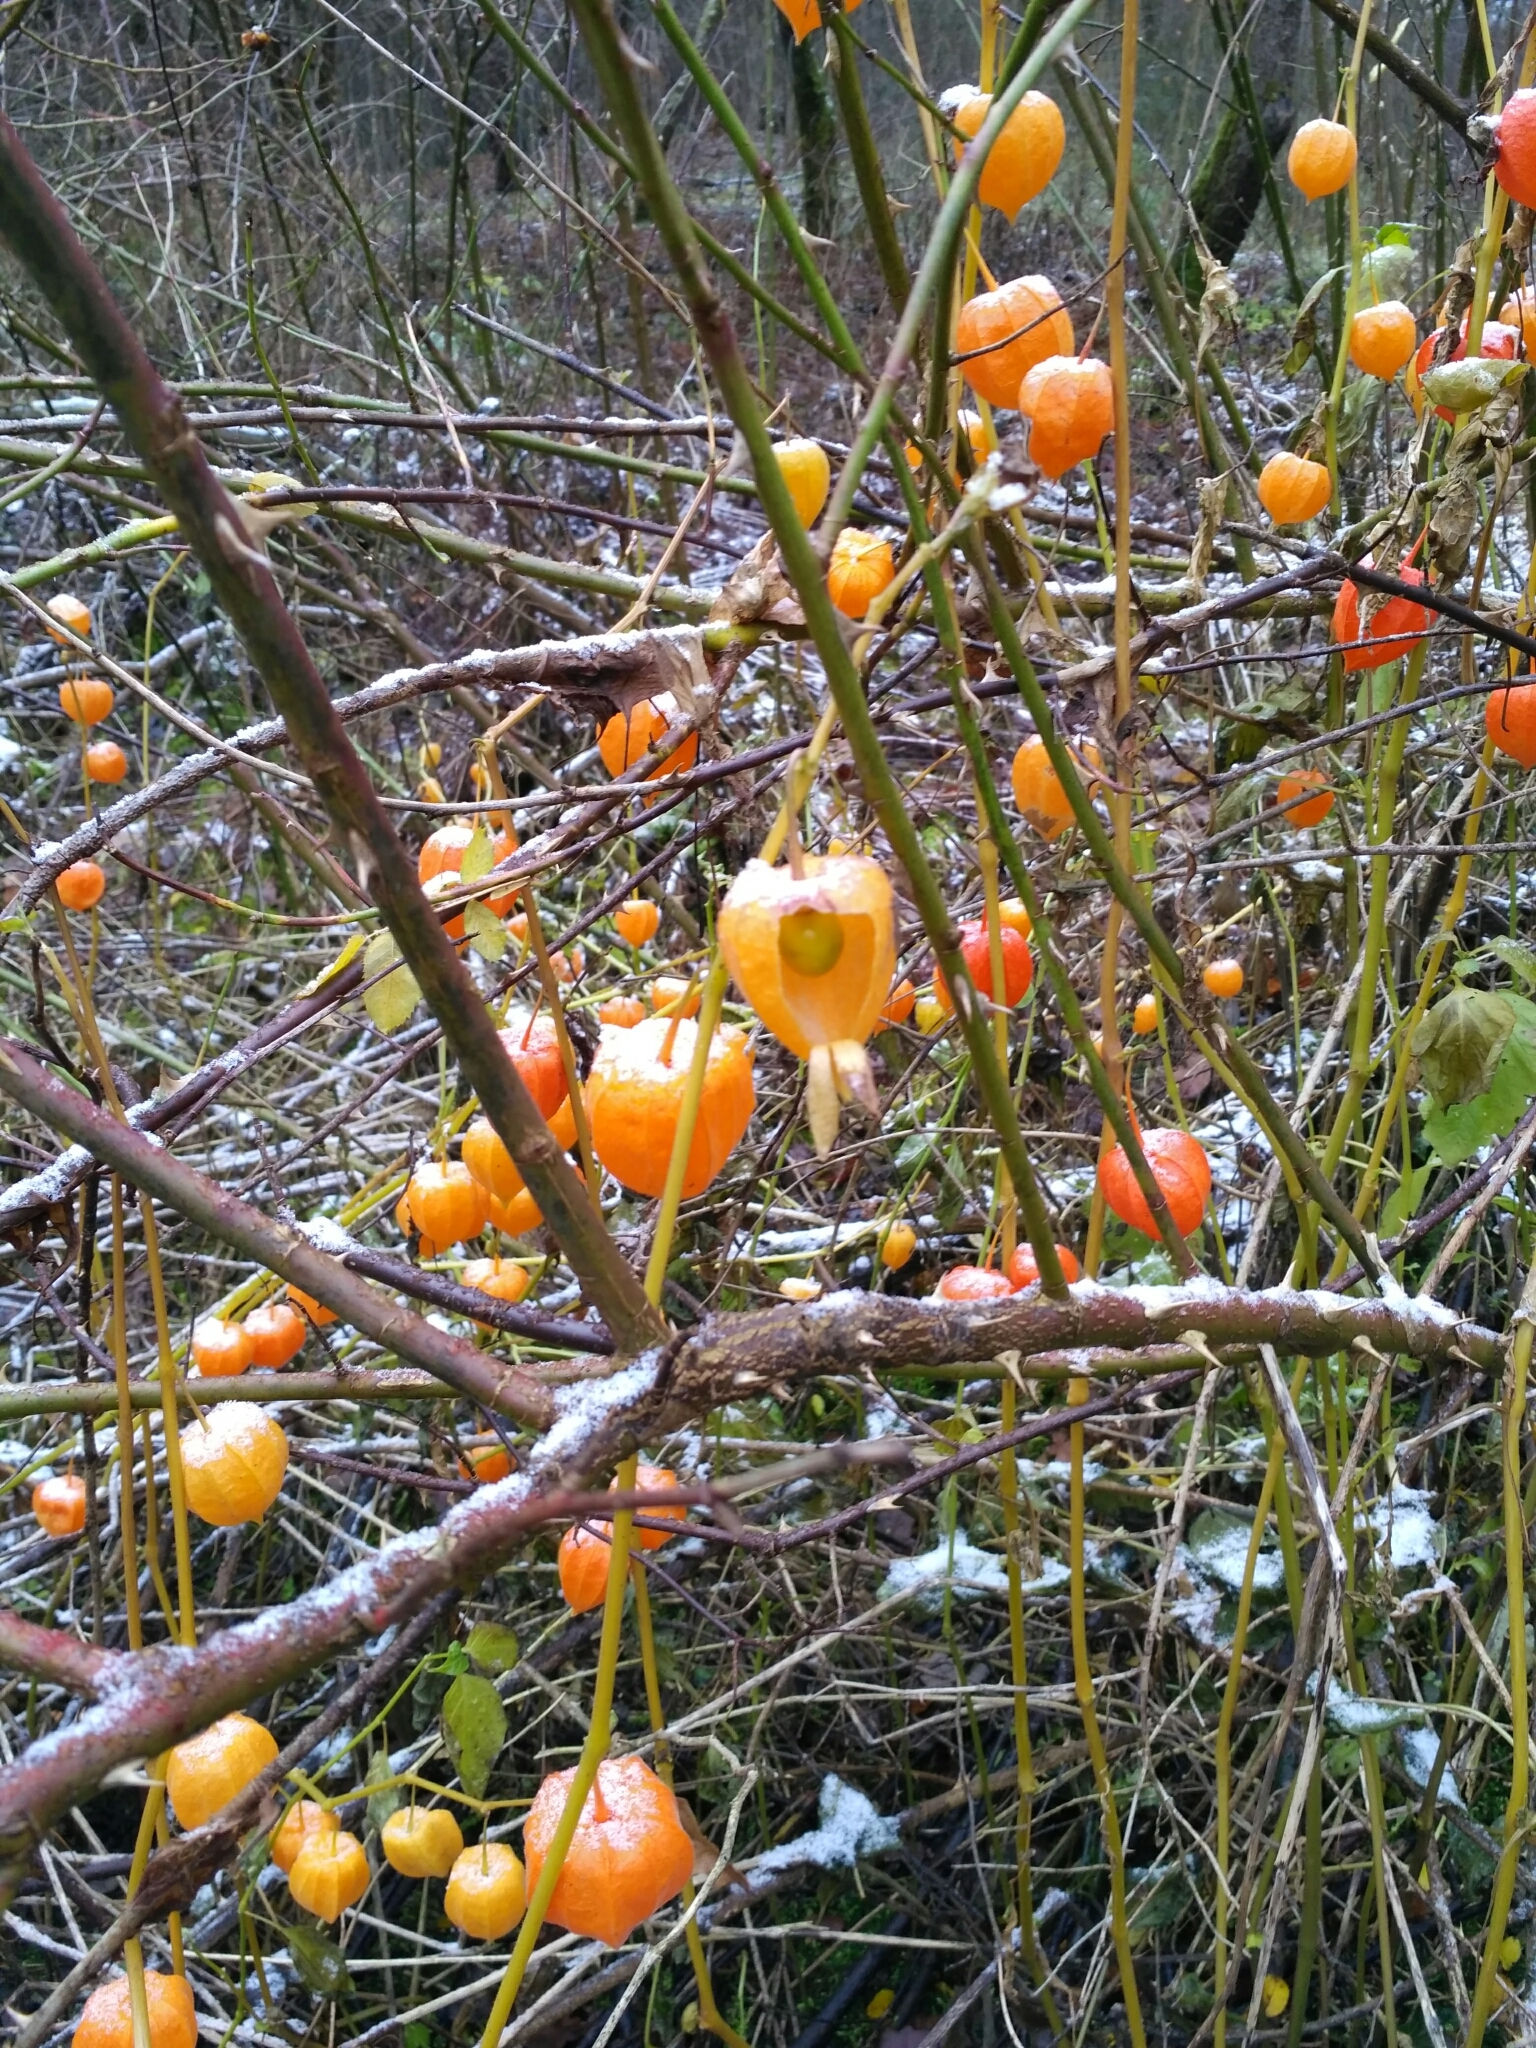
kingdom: Plantae
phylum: Tracheophyta
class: Magnoliopsida
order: Solanales
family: Solanaceae
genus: Alkekengi
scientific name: Alkekengi officinarum
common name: Japanese-lantern
